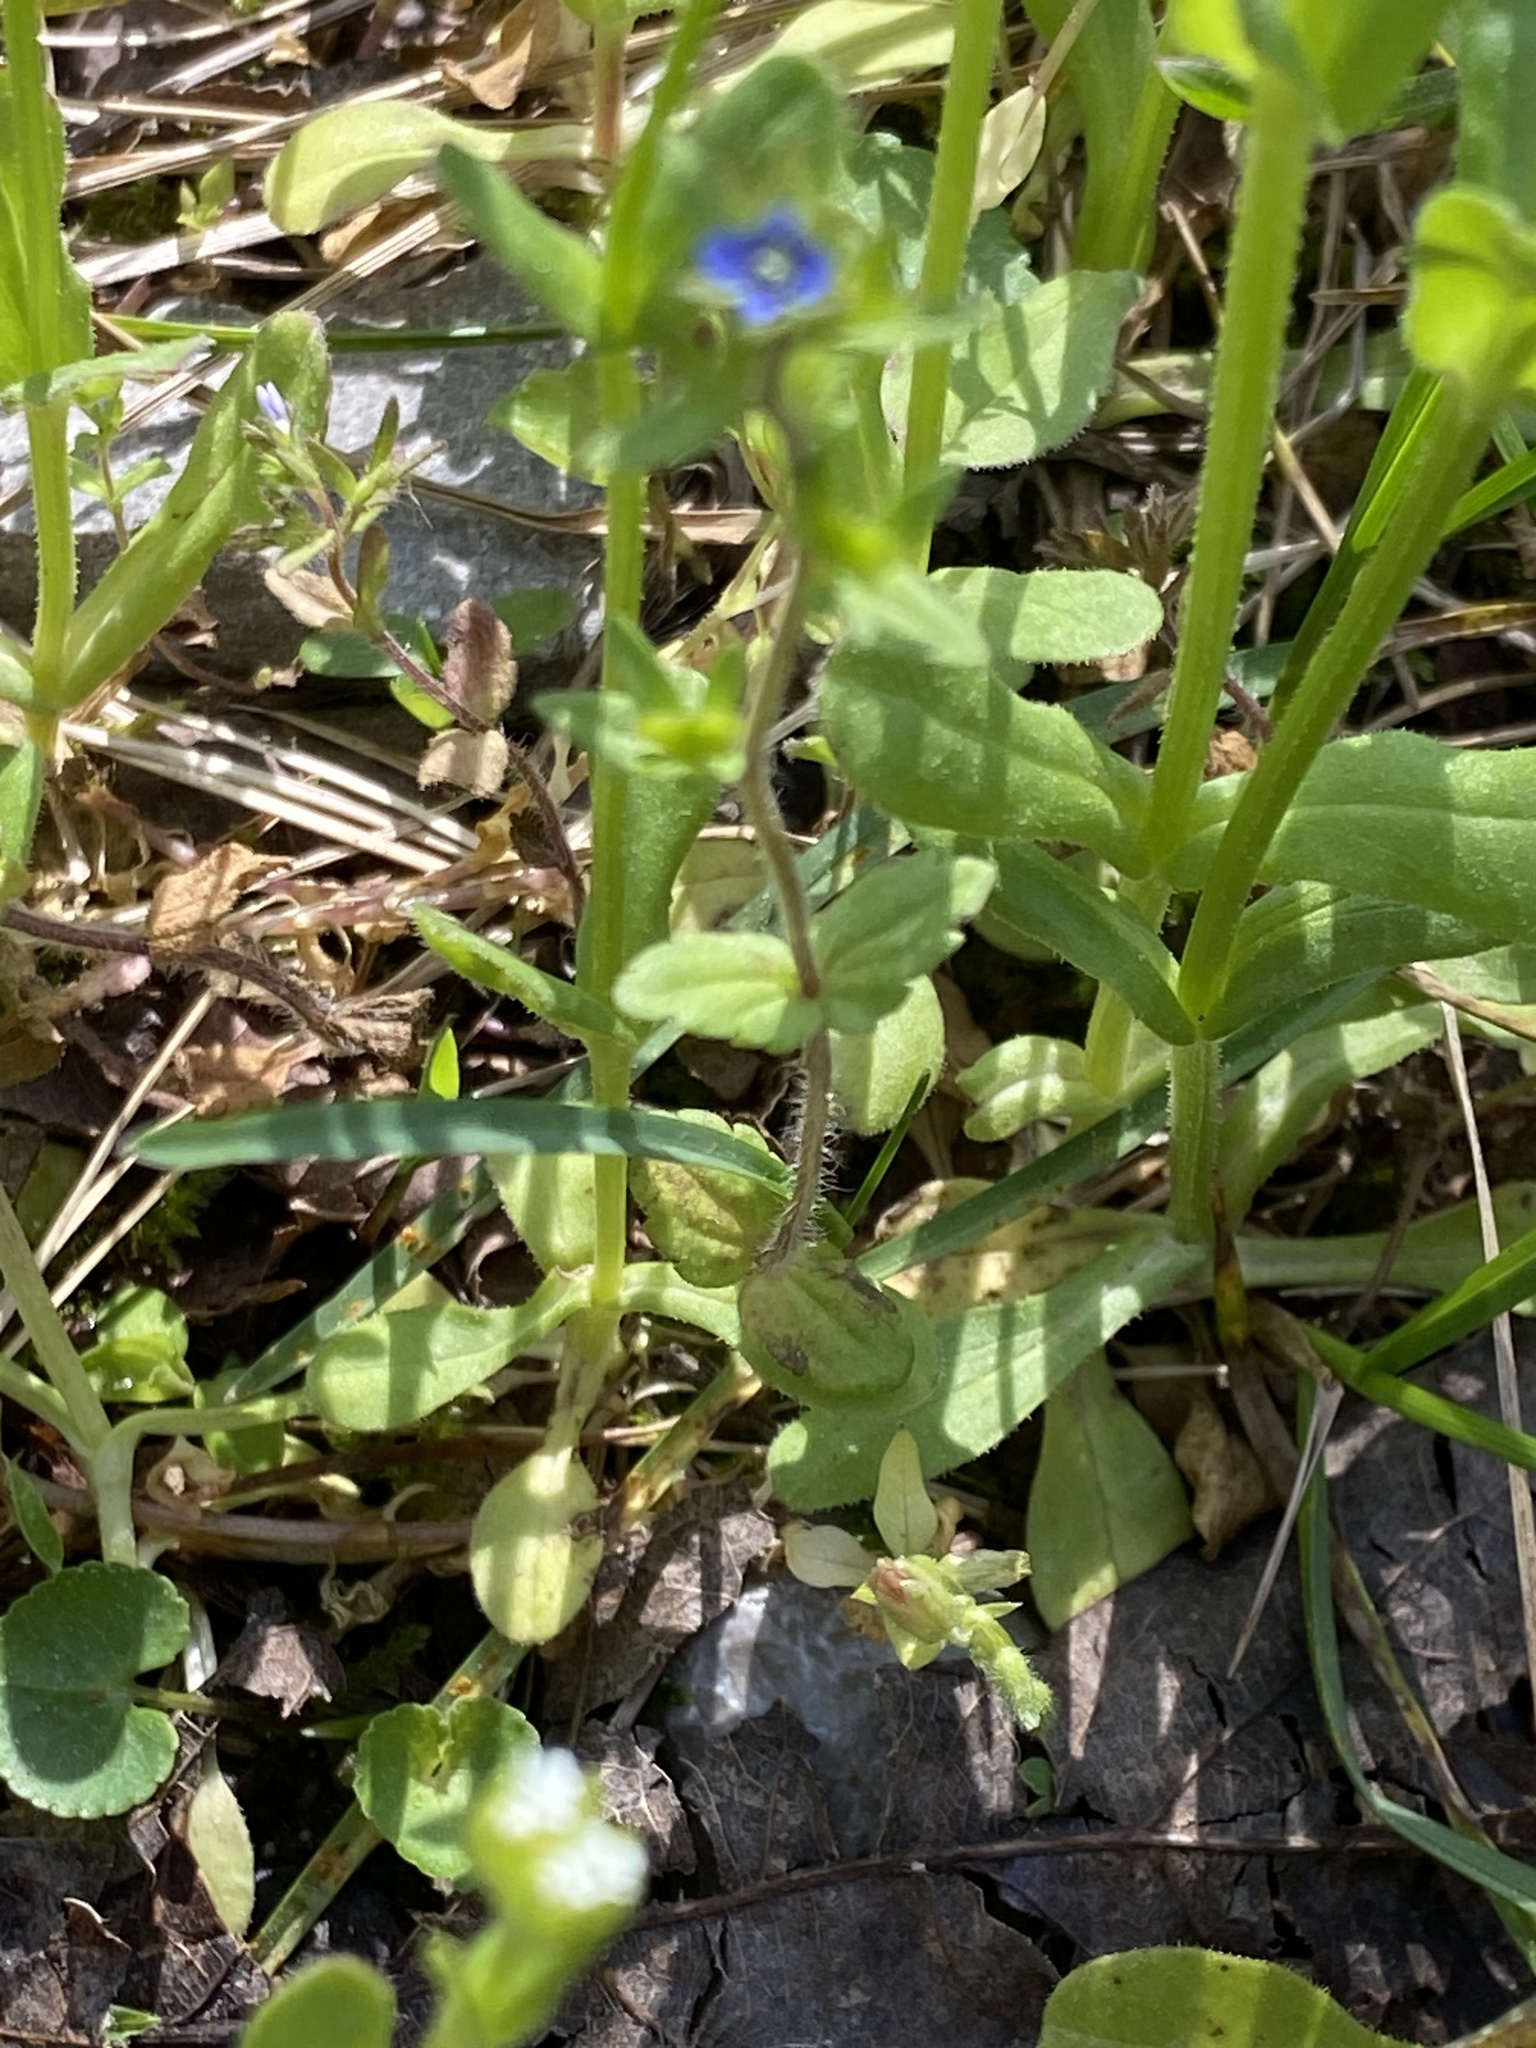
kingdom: Plantae
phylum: Tracheophyta
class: Magnoliopsida
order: Lamiales
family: Plantaginaceae
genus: Veronica
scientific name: Veronica arvensis
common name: Corn speedwell
